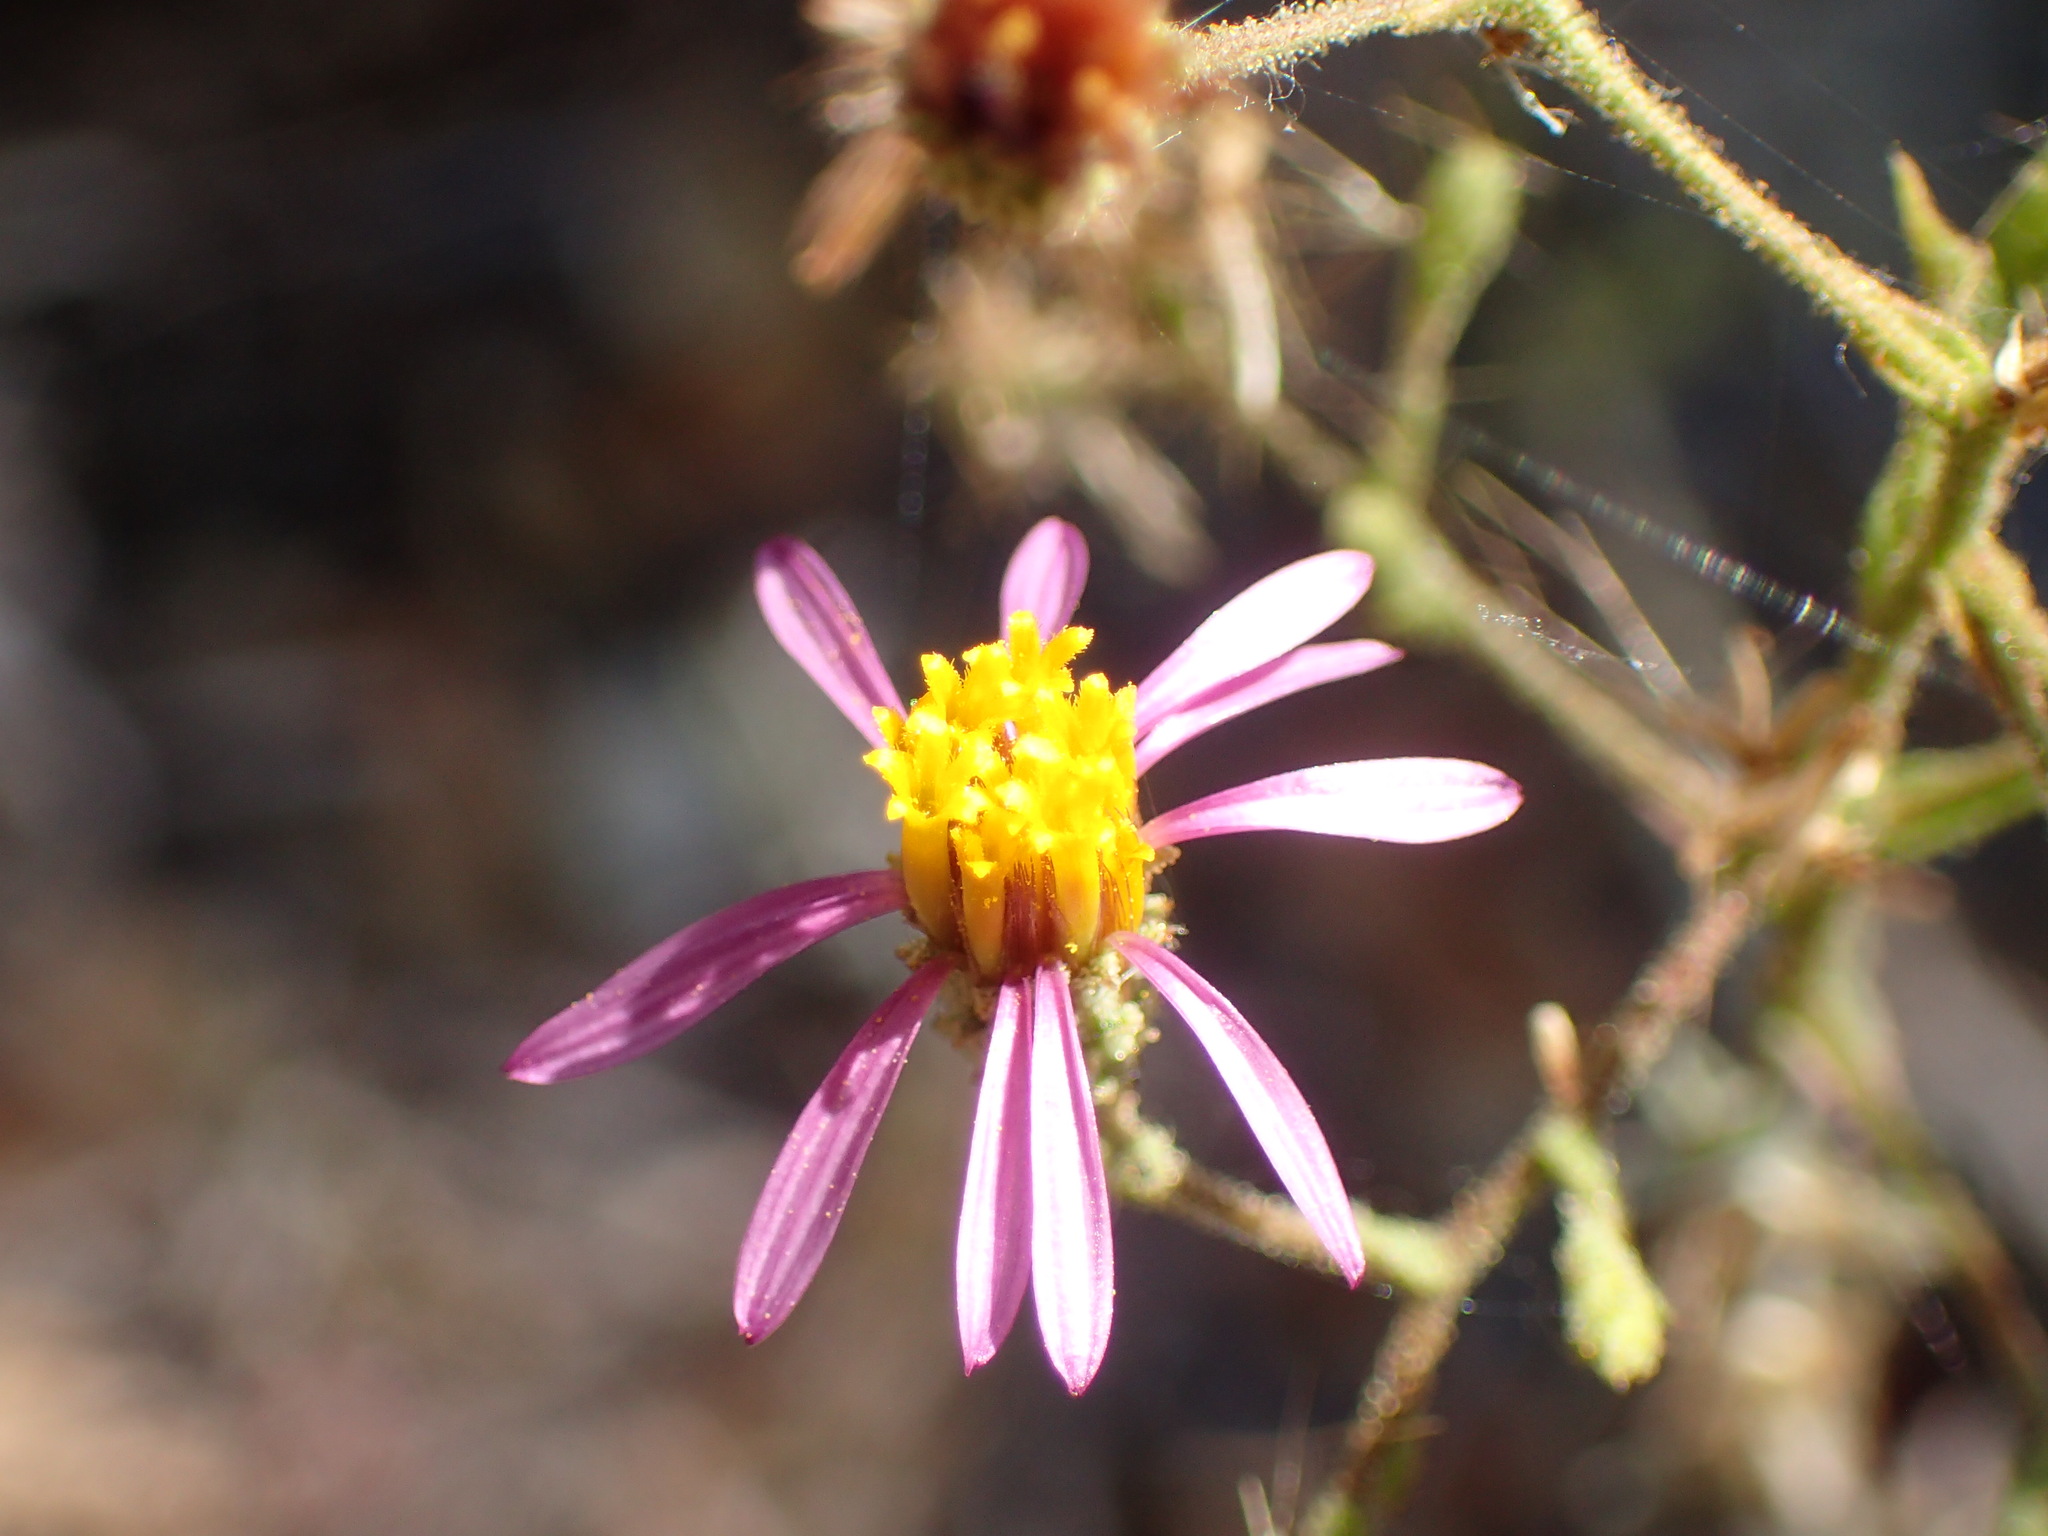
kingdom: Plantae
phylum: Tracheophyta
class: Magnoliopsida
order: Asterales
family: Asteraceae
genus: Corethrogyne
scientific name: Corethrogyne filaginifolia
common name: Sand-aster
